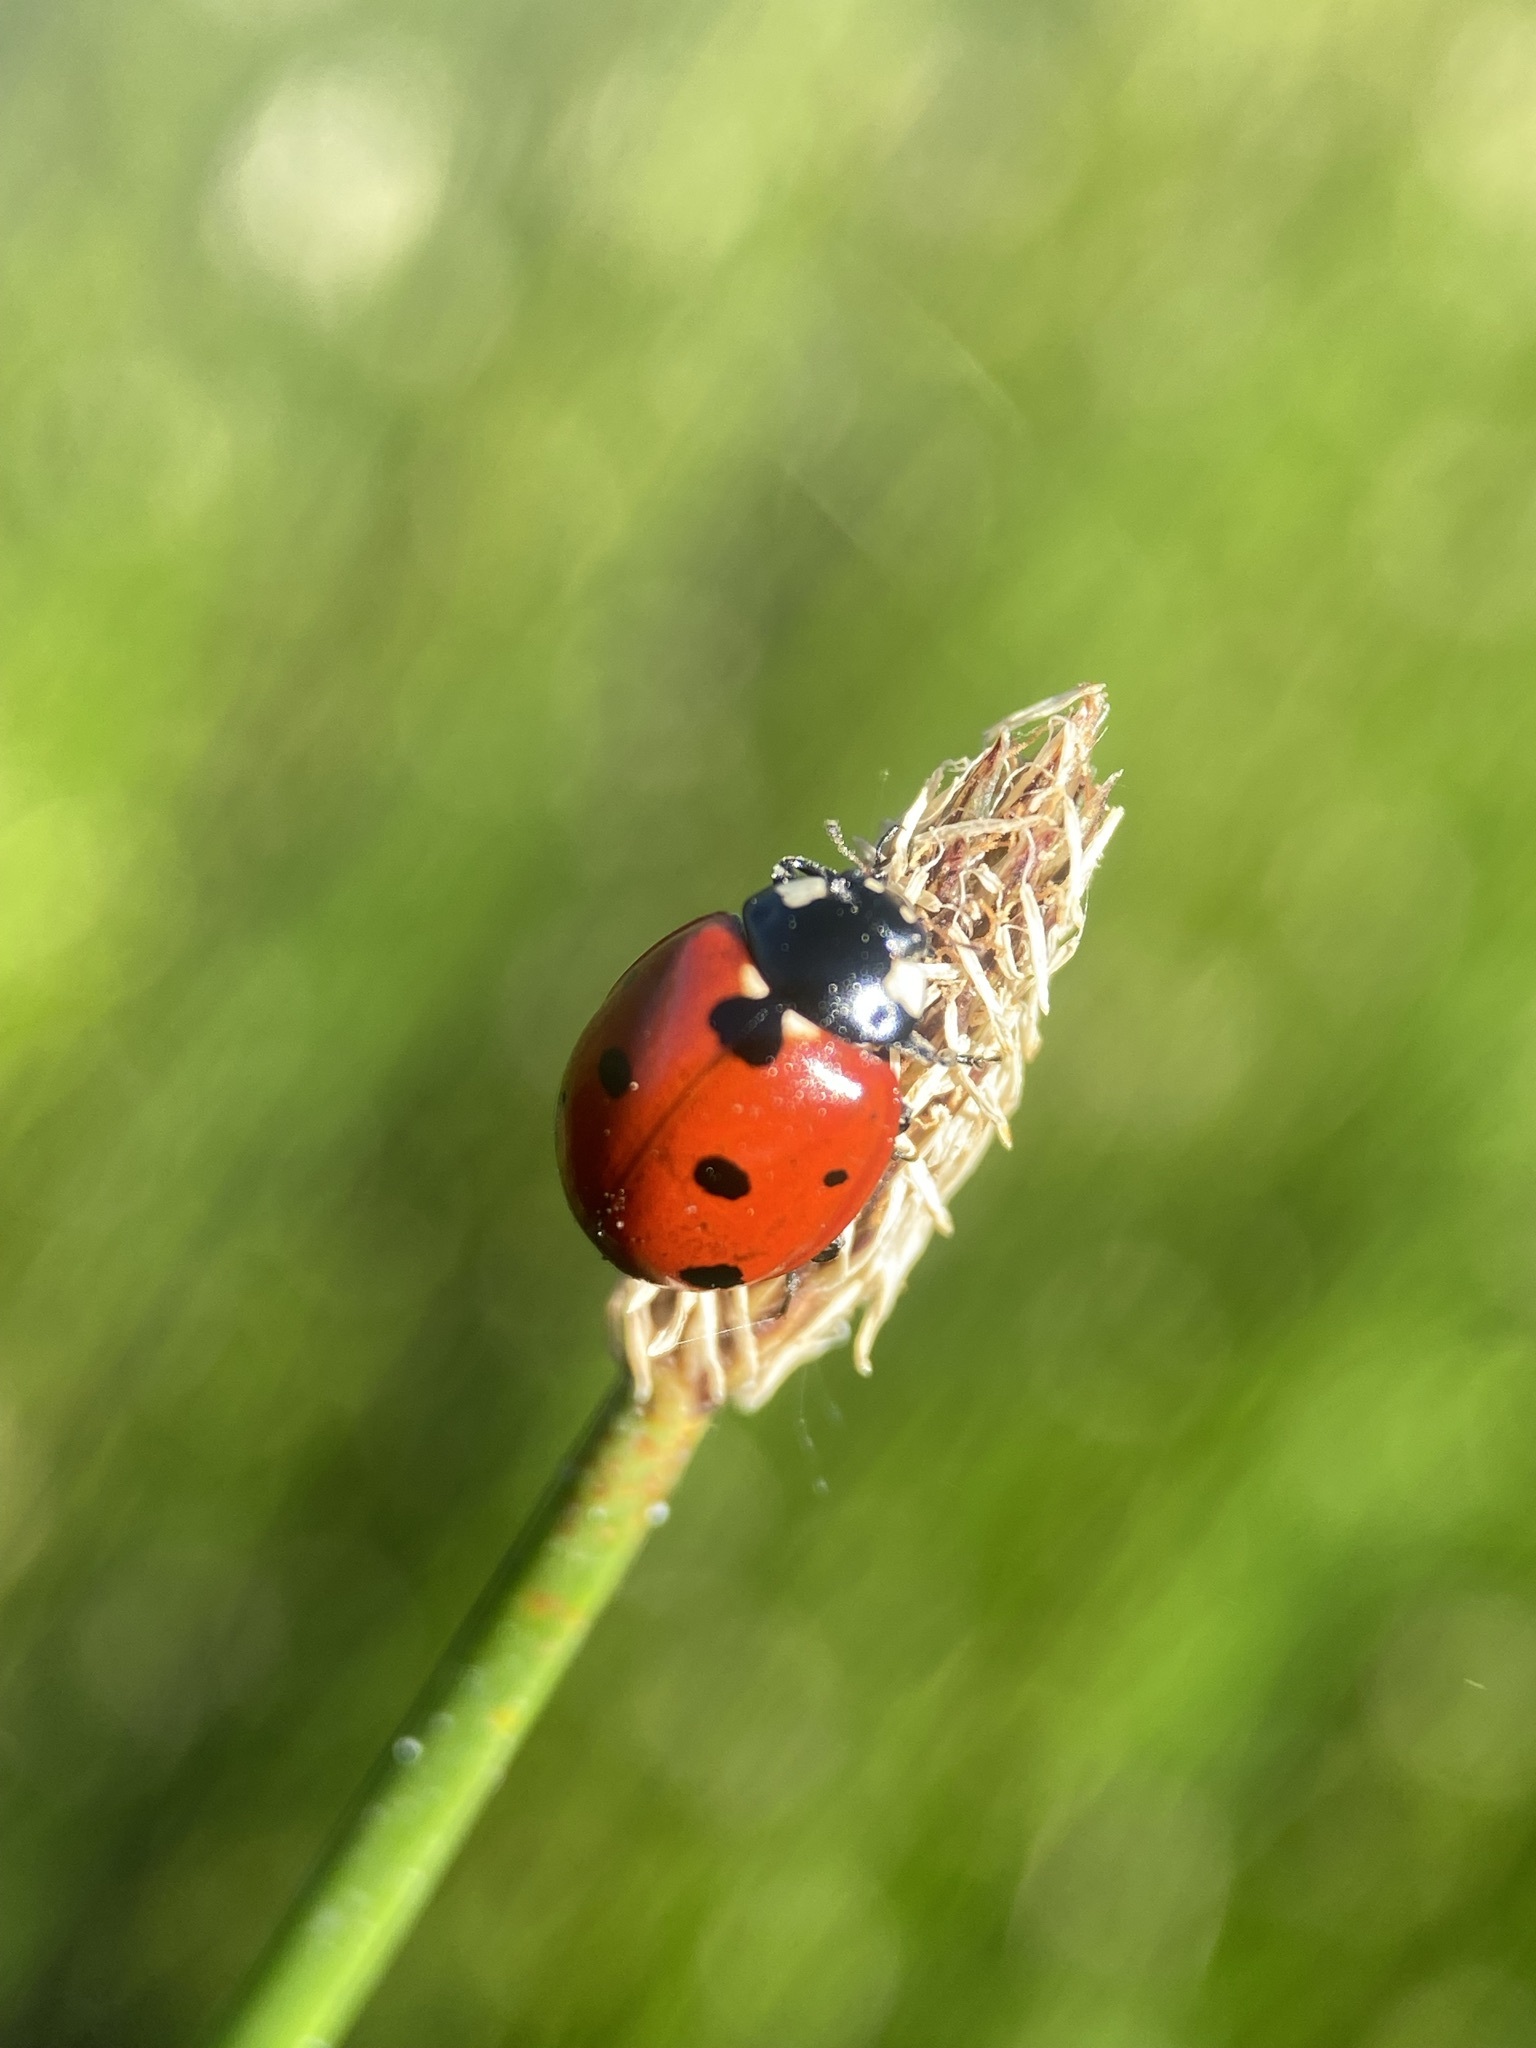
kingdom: Animalia
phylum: Arthropoda
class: Insecta
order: Coleoptera
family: Coccinellidae
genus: Coccinella
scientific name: Coccinella septempunctata
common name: Sevenspotted lady beetle
